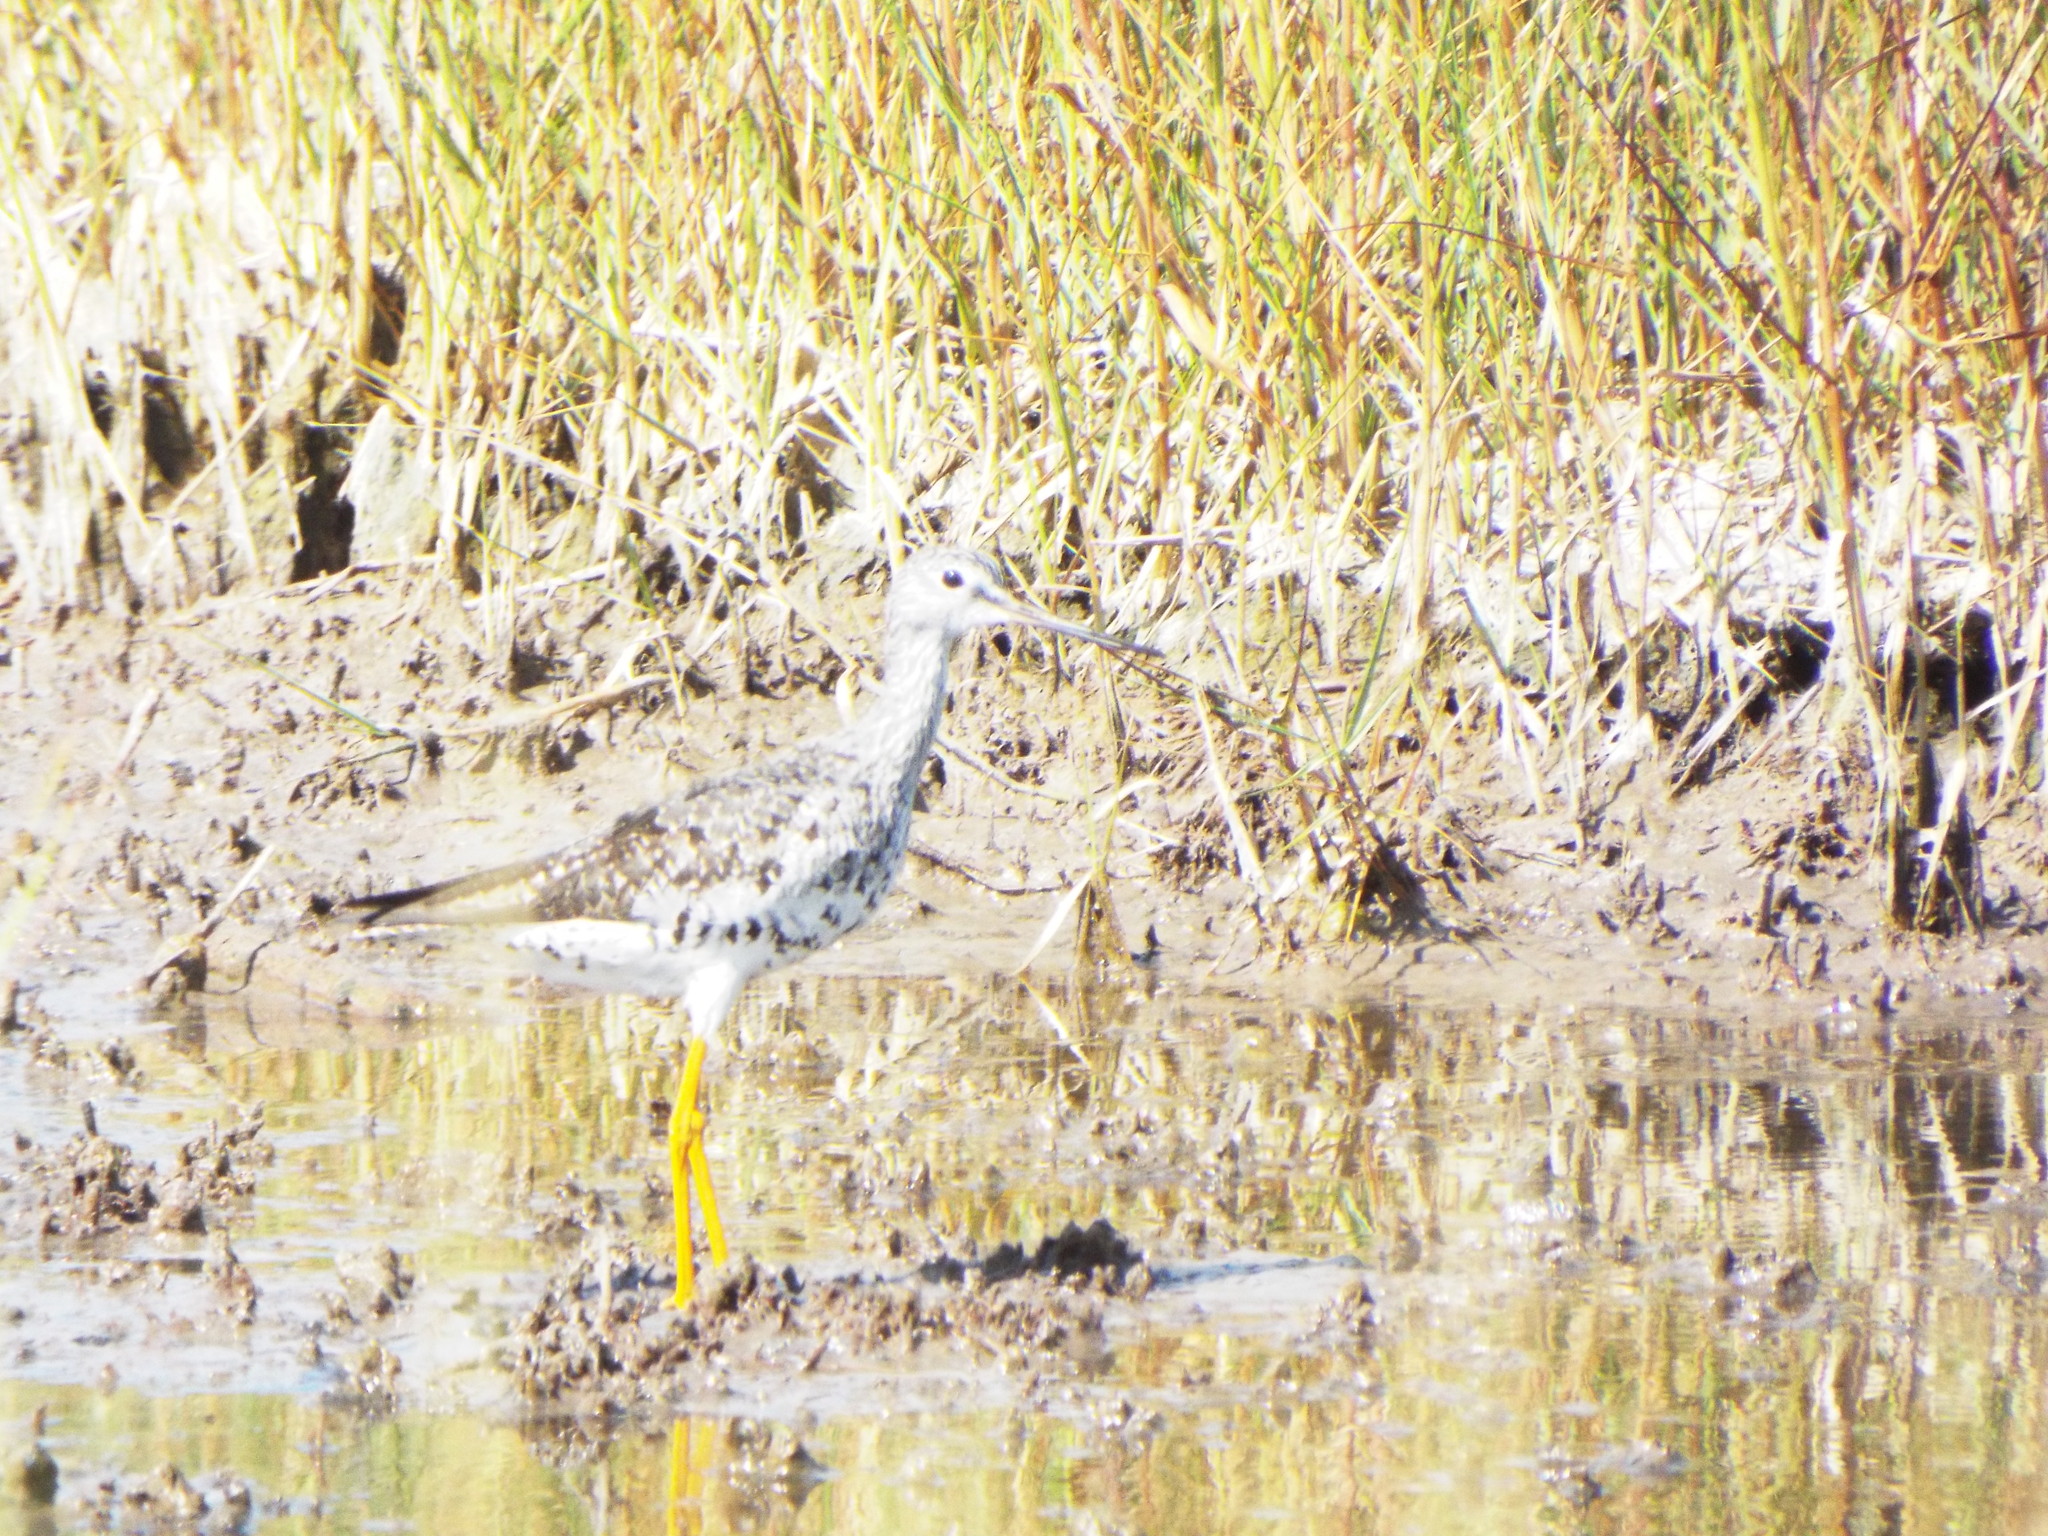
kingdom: Animalia
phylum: Chordata
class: Aves
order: Charadriiformes
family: Scolopacidae
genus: Tringa
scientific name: Tringa melanoleuca
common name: Greater yellowlegs
